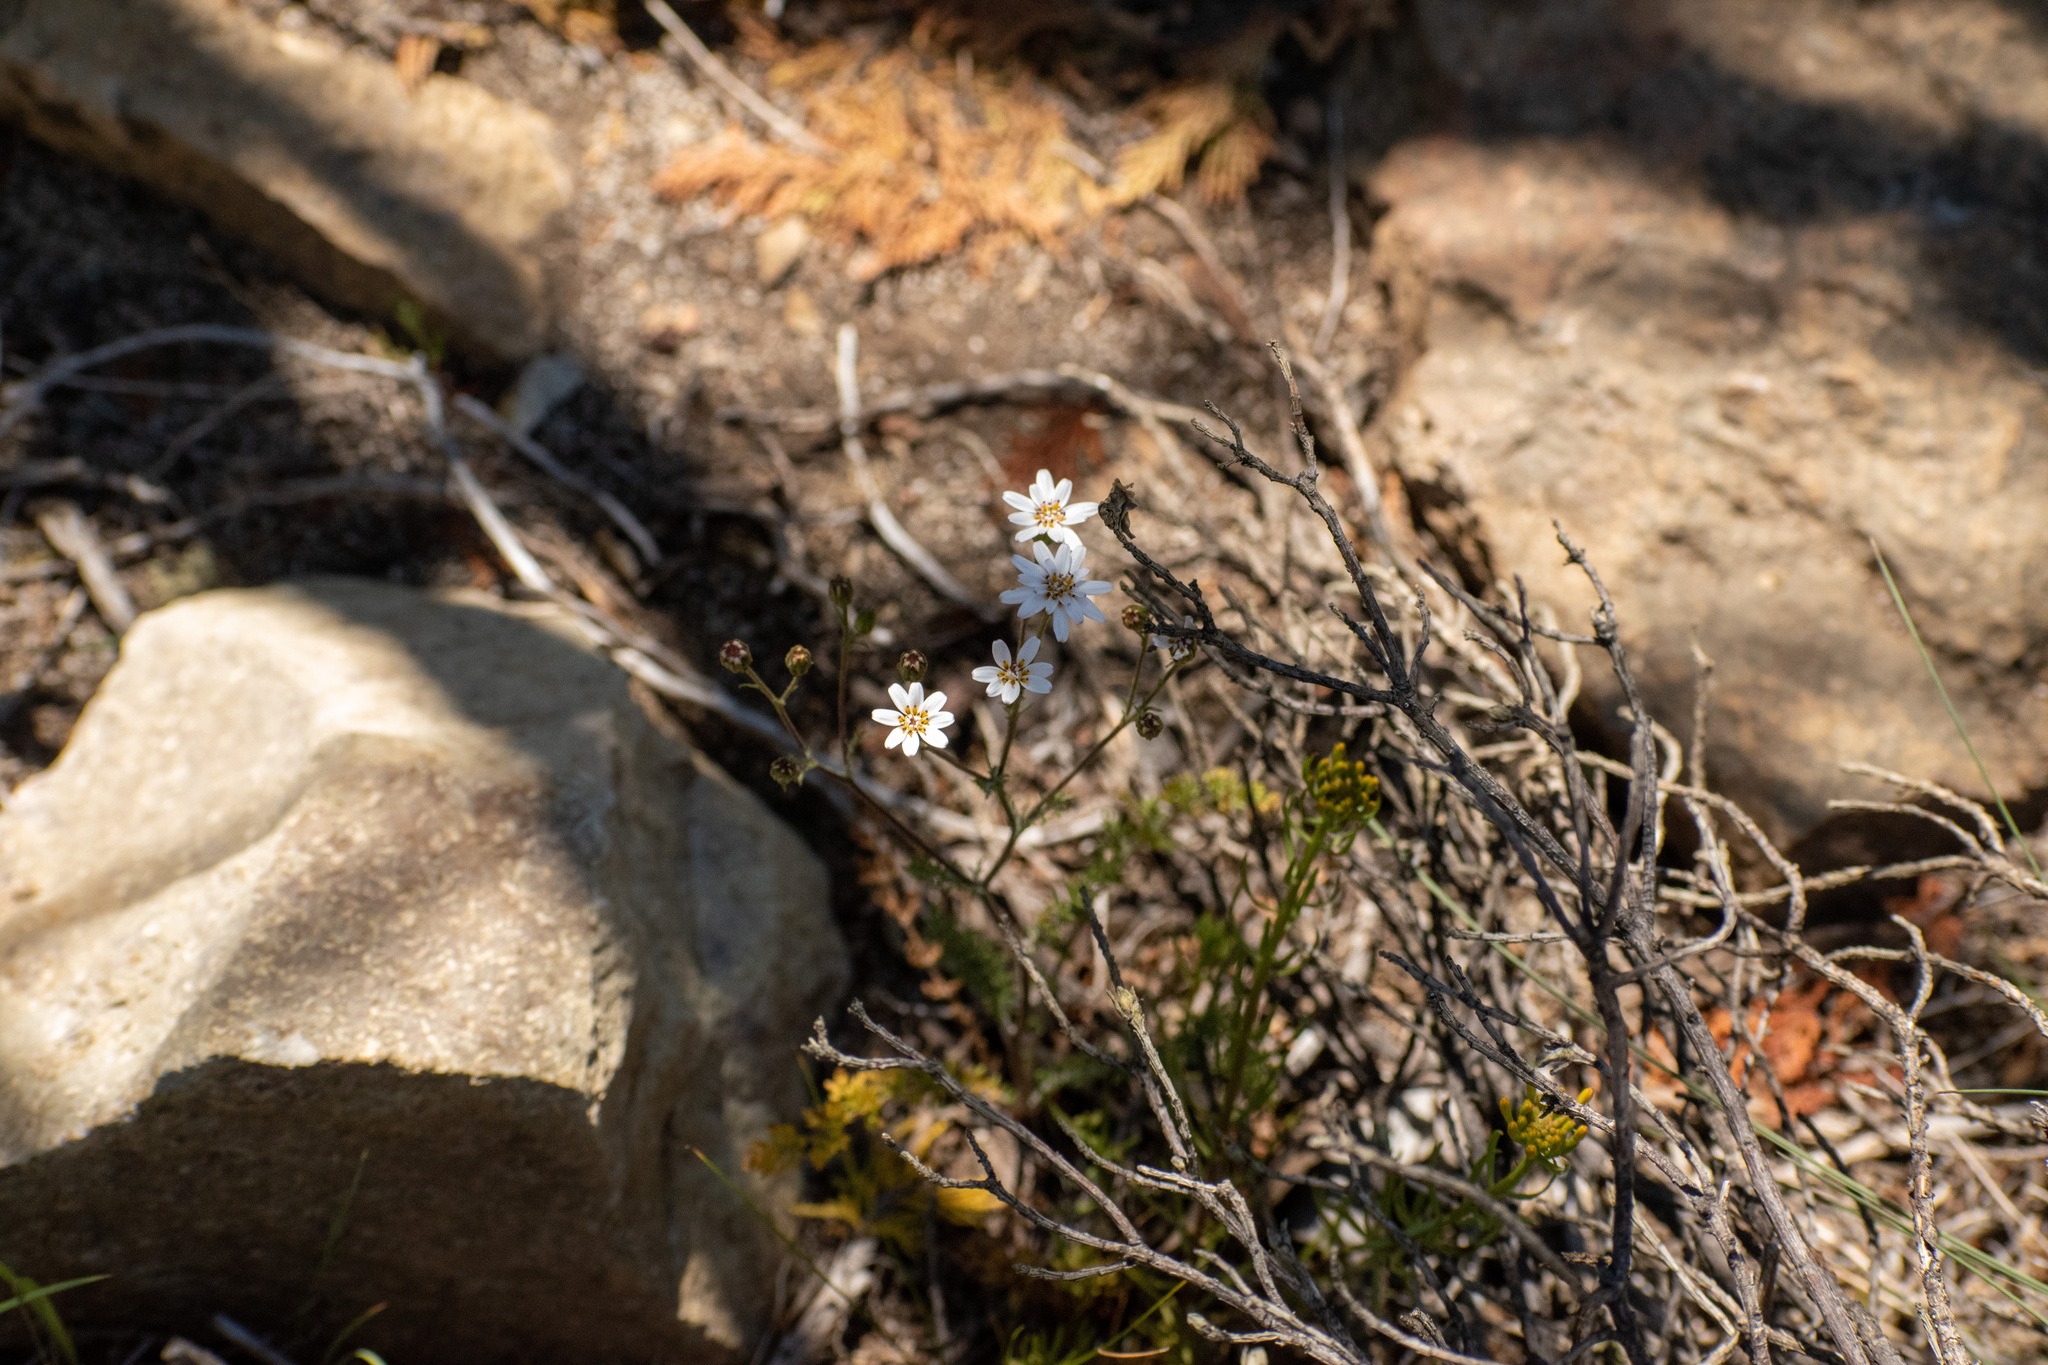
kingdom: Plantae
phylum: Tracheophyta
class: Magnoliopsida
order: Asterales
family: Asteraceae
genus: Leucheria
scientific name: Leucheria achillaeifolia
